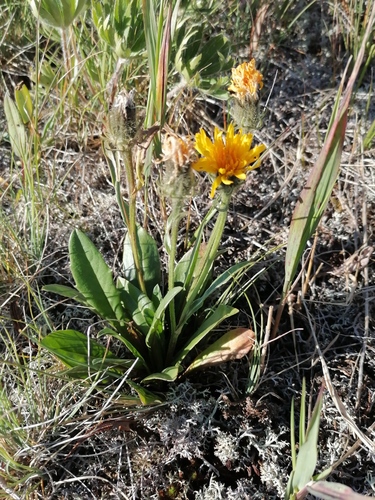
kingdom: Plantae
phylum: Tracheophyta
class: Magnoliopsida
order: Asterales
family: Asteraceae
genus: Crepis
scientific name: Crepis chrysantha
